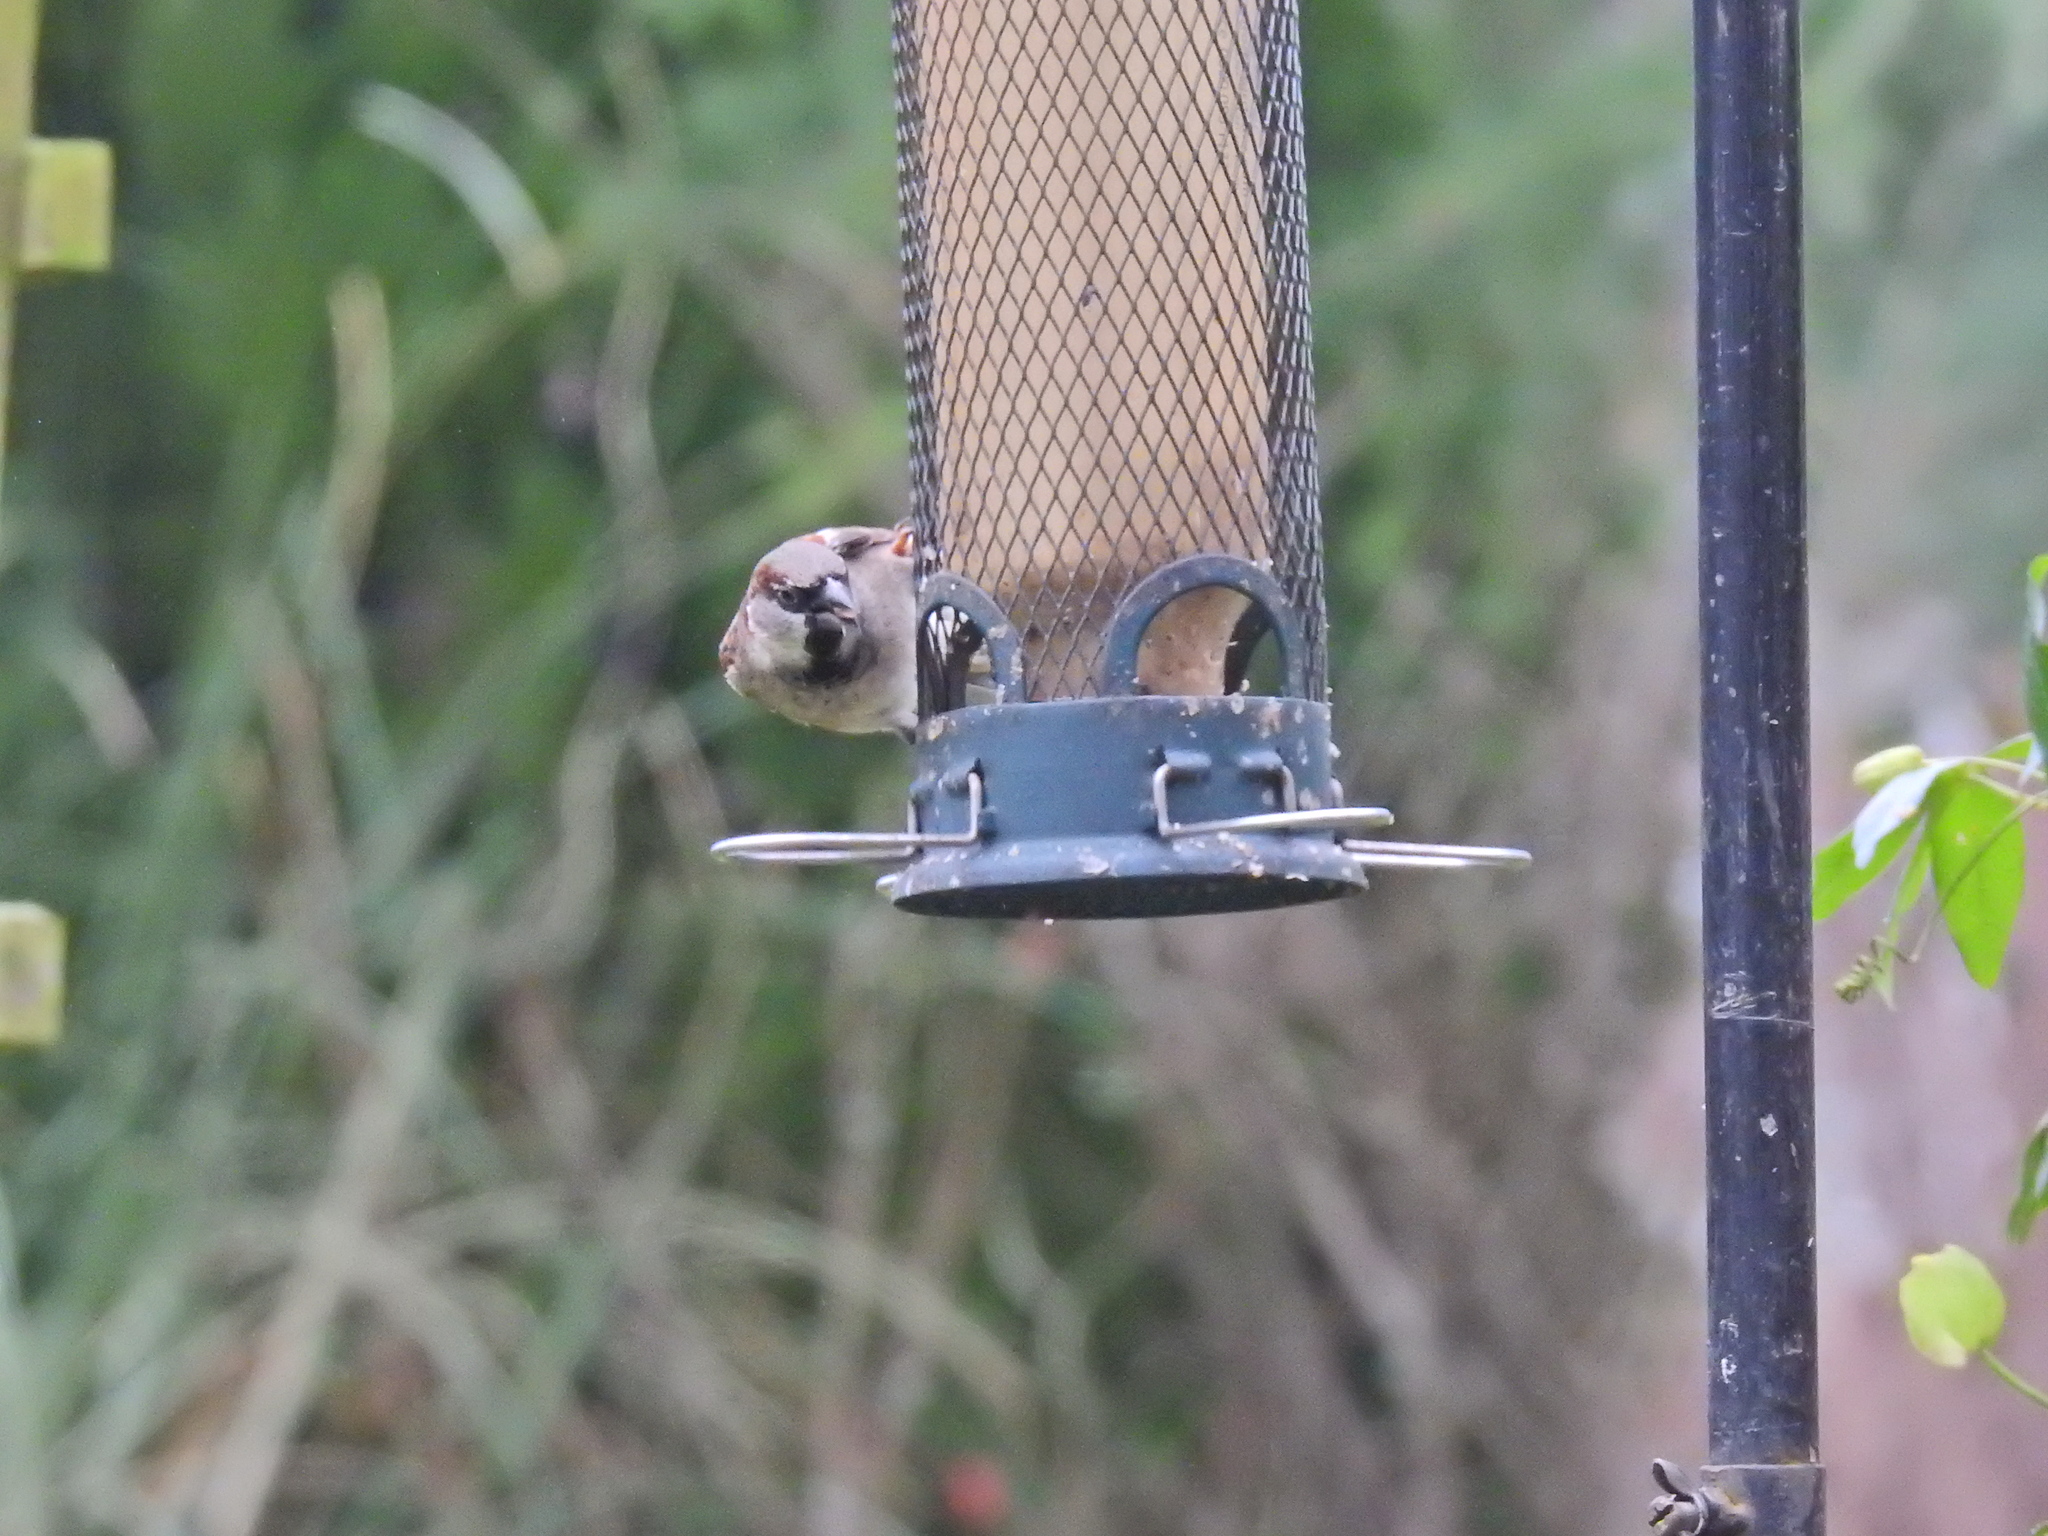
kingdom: Animalia
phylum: Chordata
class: Aves
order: Passeriformes
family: Passeridae
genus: Passer
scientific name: Passer domesticus
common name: House sparrow
